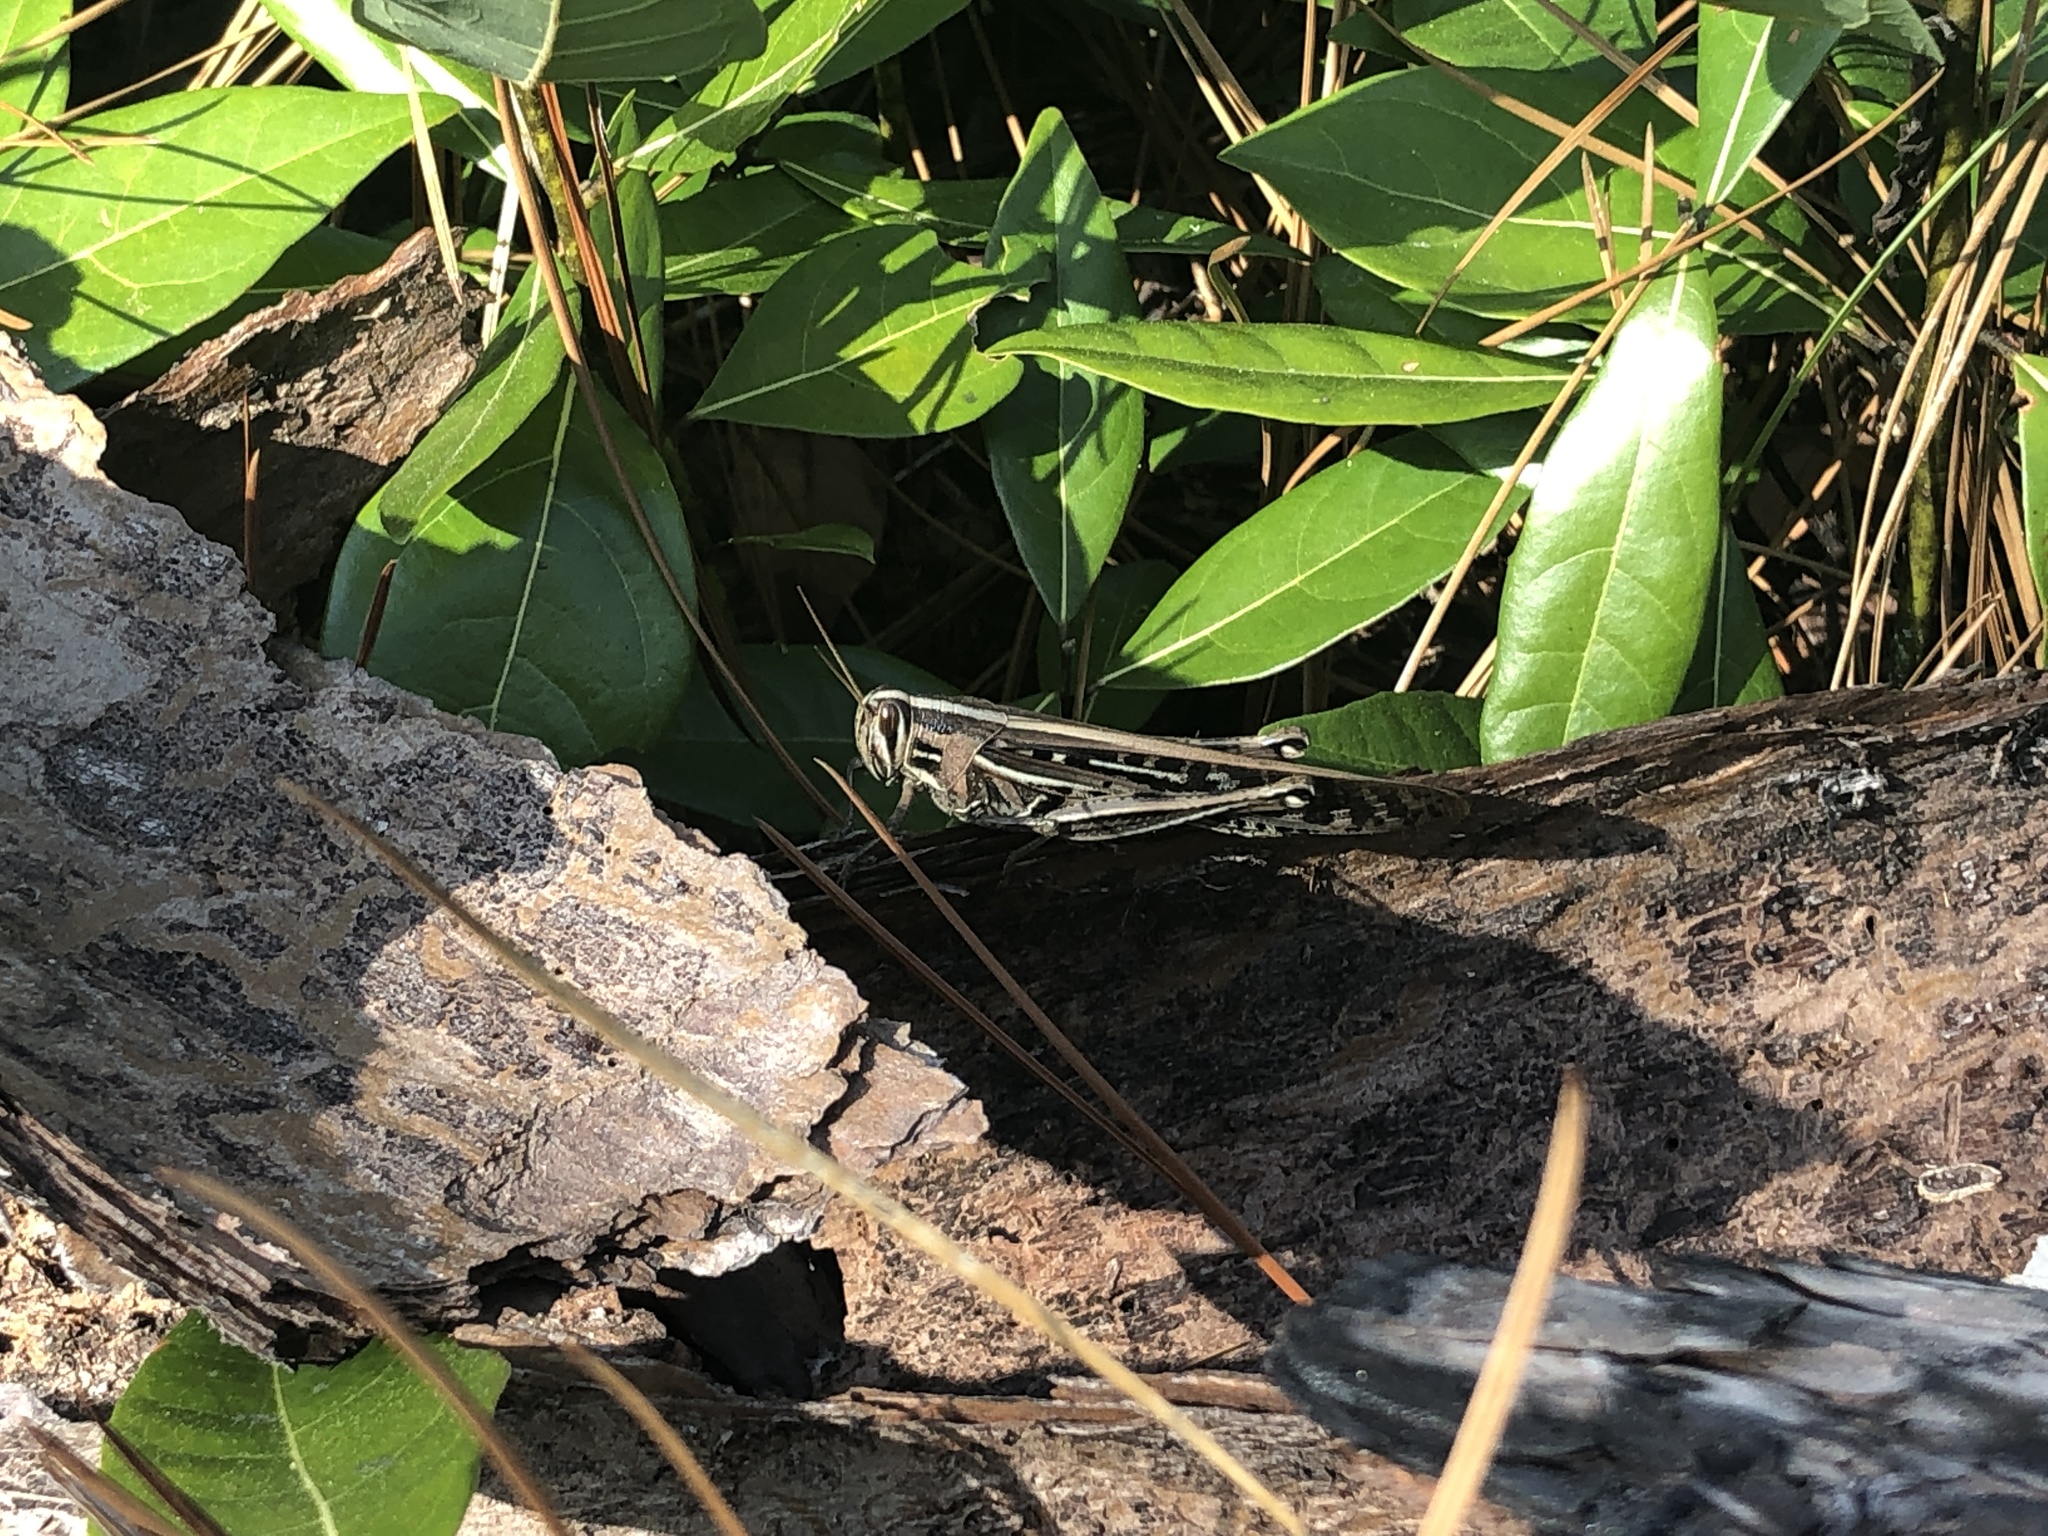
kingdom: Animalia
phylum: Arthropoda
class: Insecta
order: Orthoptera
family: Acrididae
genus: Schistocerca
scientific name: Schistocerca americana
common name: American bird locust
